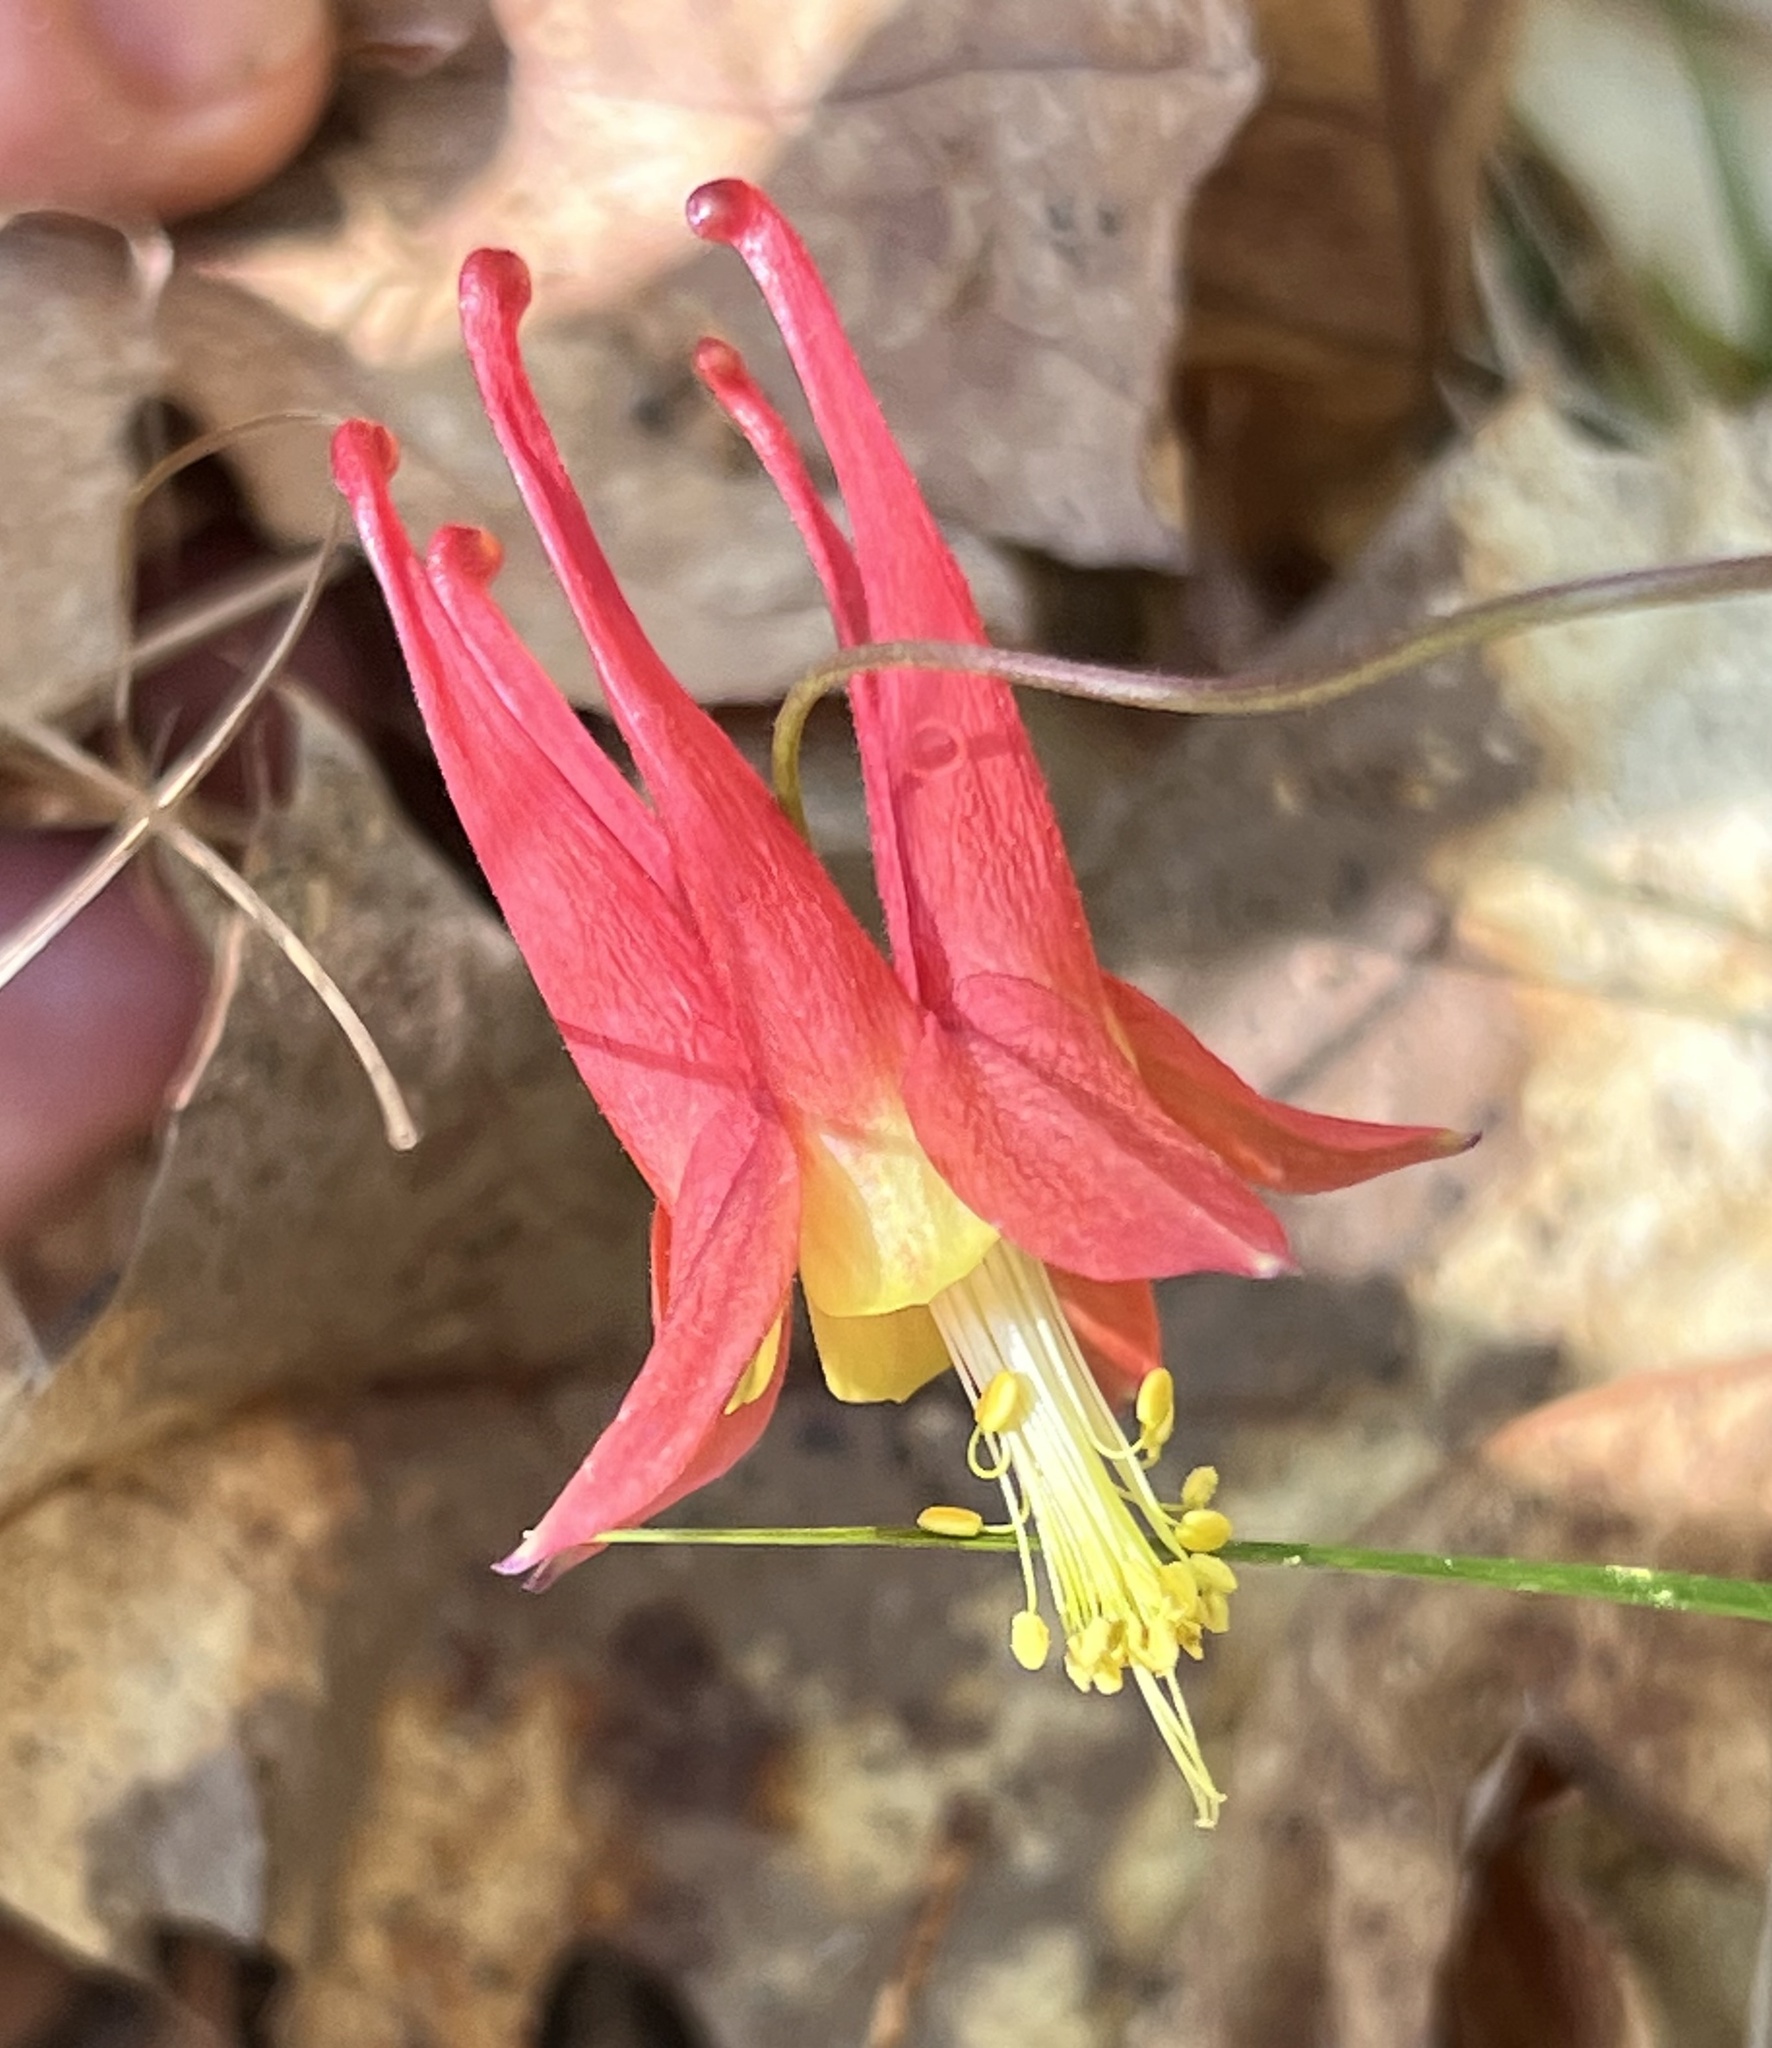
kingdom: Plantae
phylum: Tracheophyta
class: Magnoliopsida
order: Ranunculales
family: Ranunculaceae
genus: Aquilegia
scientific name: Aquilegia canadensis
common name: American columbine
